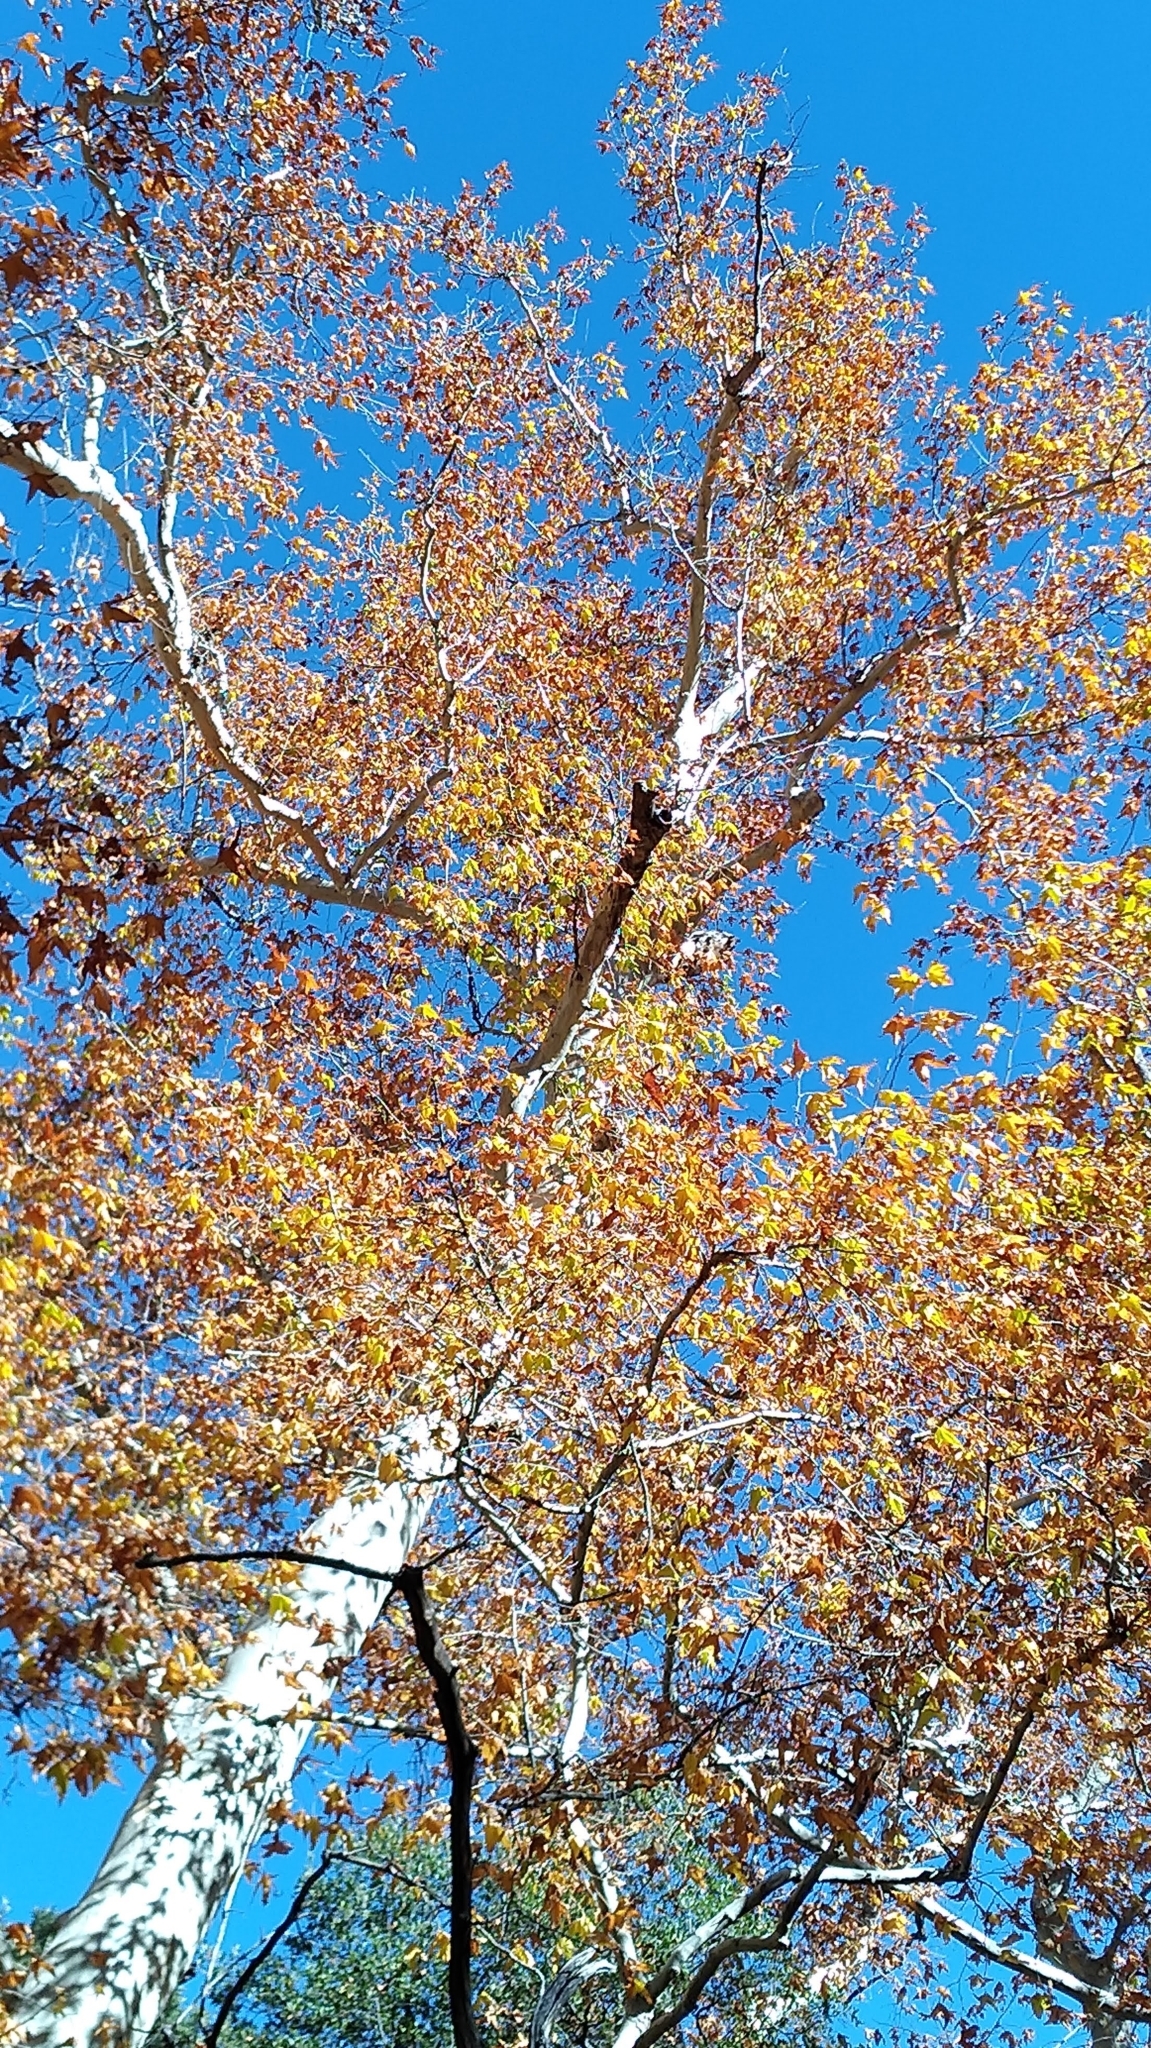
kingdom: Plantae
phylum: Tracheophyta
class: Magnoliopsida
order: Proteales
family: Platanaceae
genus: Platanus
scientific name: Platanus wrightii
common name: Arizona sycamore
